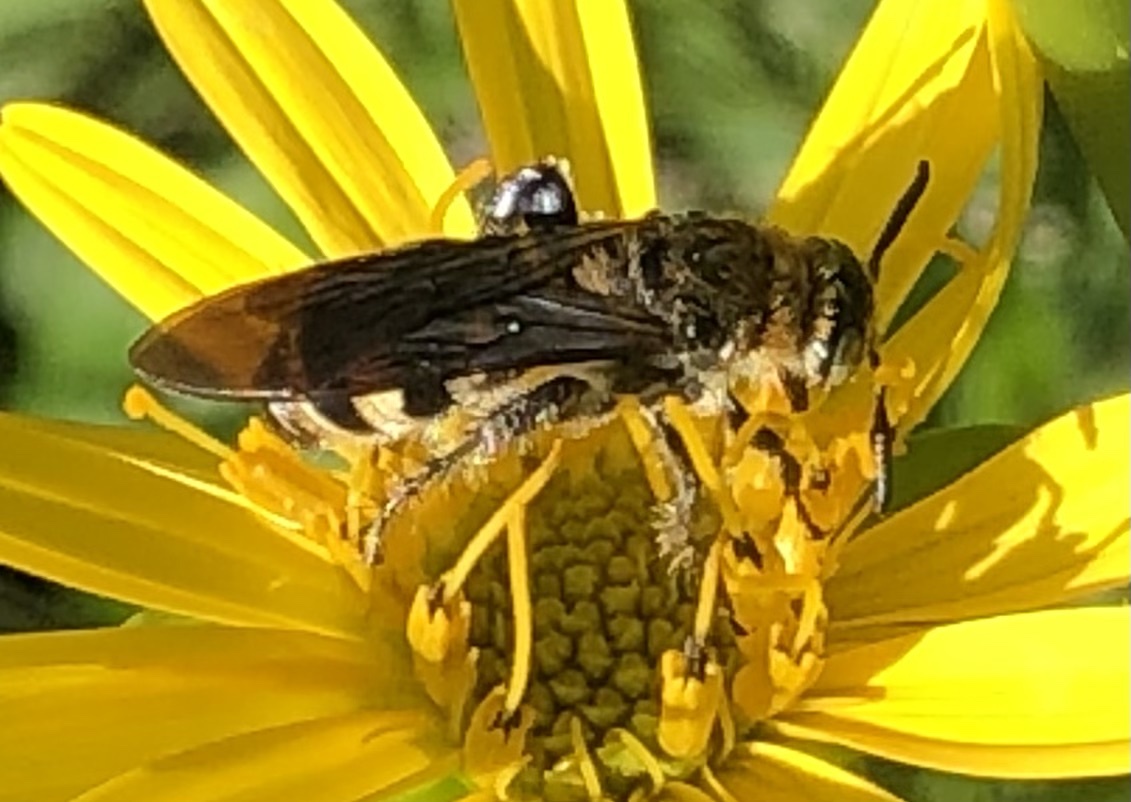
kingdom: Animalia
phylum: Arthropoda
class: Insecta
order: Hymenoptera
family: Scoliidae
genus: Dielis
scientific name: Dielis
